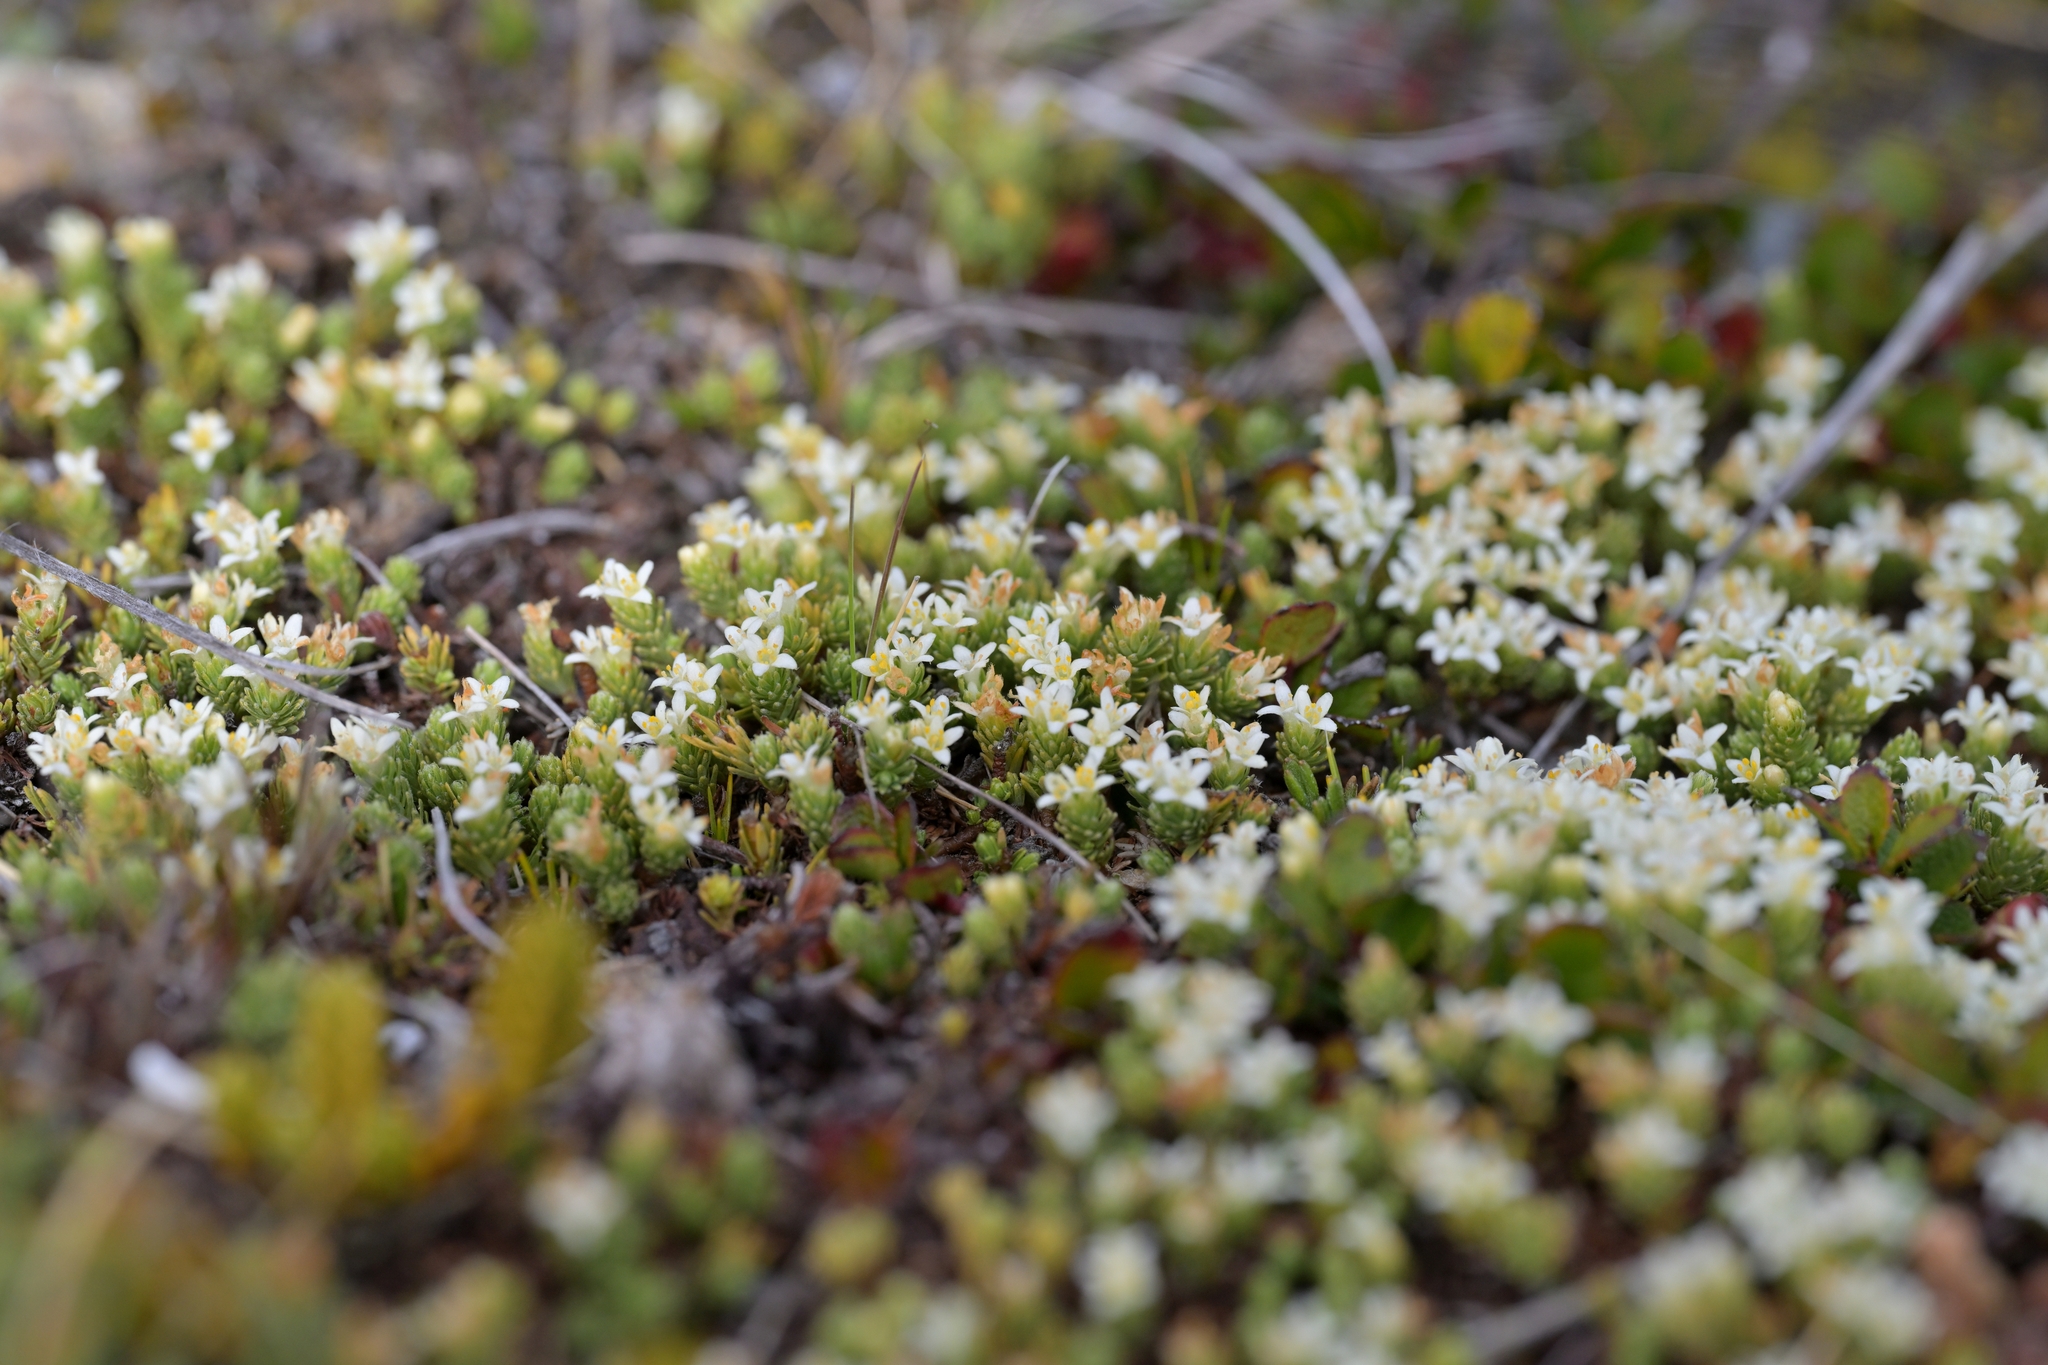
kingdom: Plantae
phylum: Tracheophyta
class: Magnoliopsida
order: Malvales
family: Thymelaeaceae
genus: Kelleria
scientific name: Kelleria dieffenbachii
